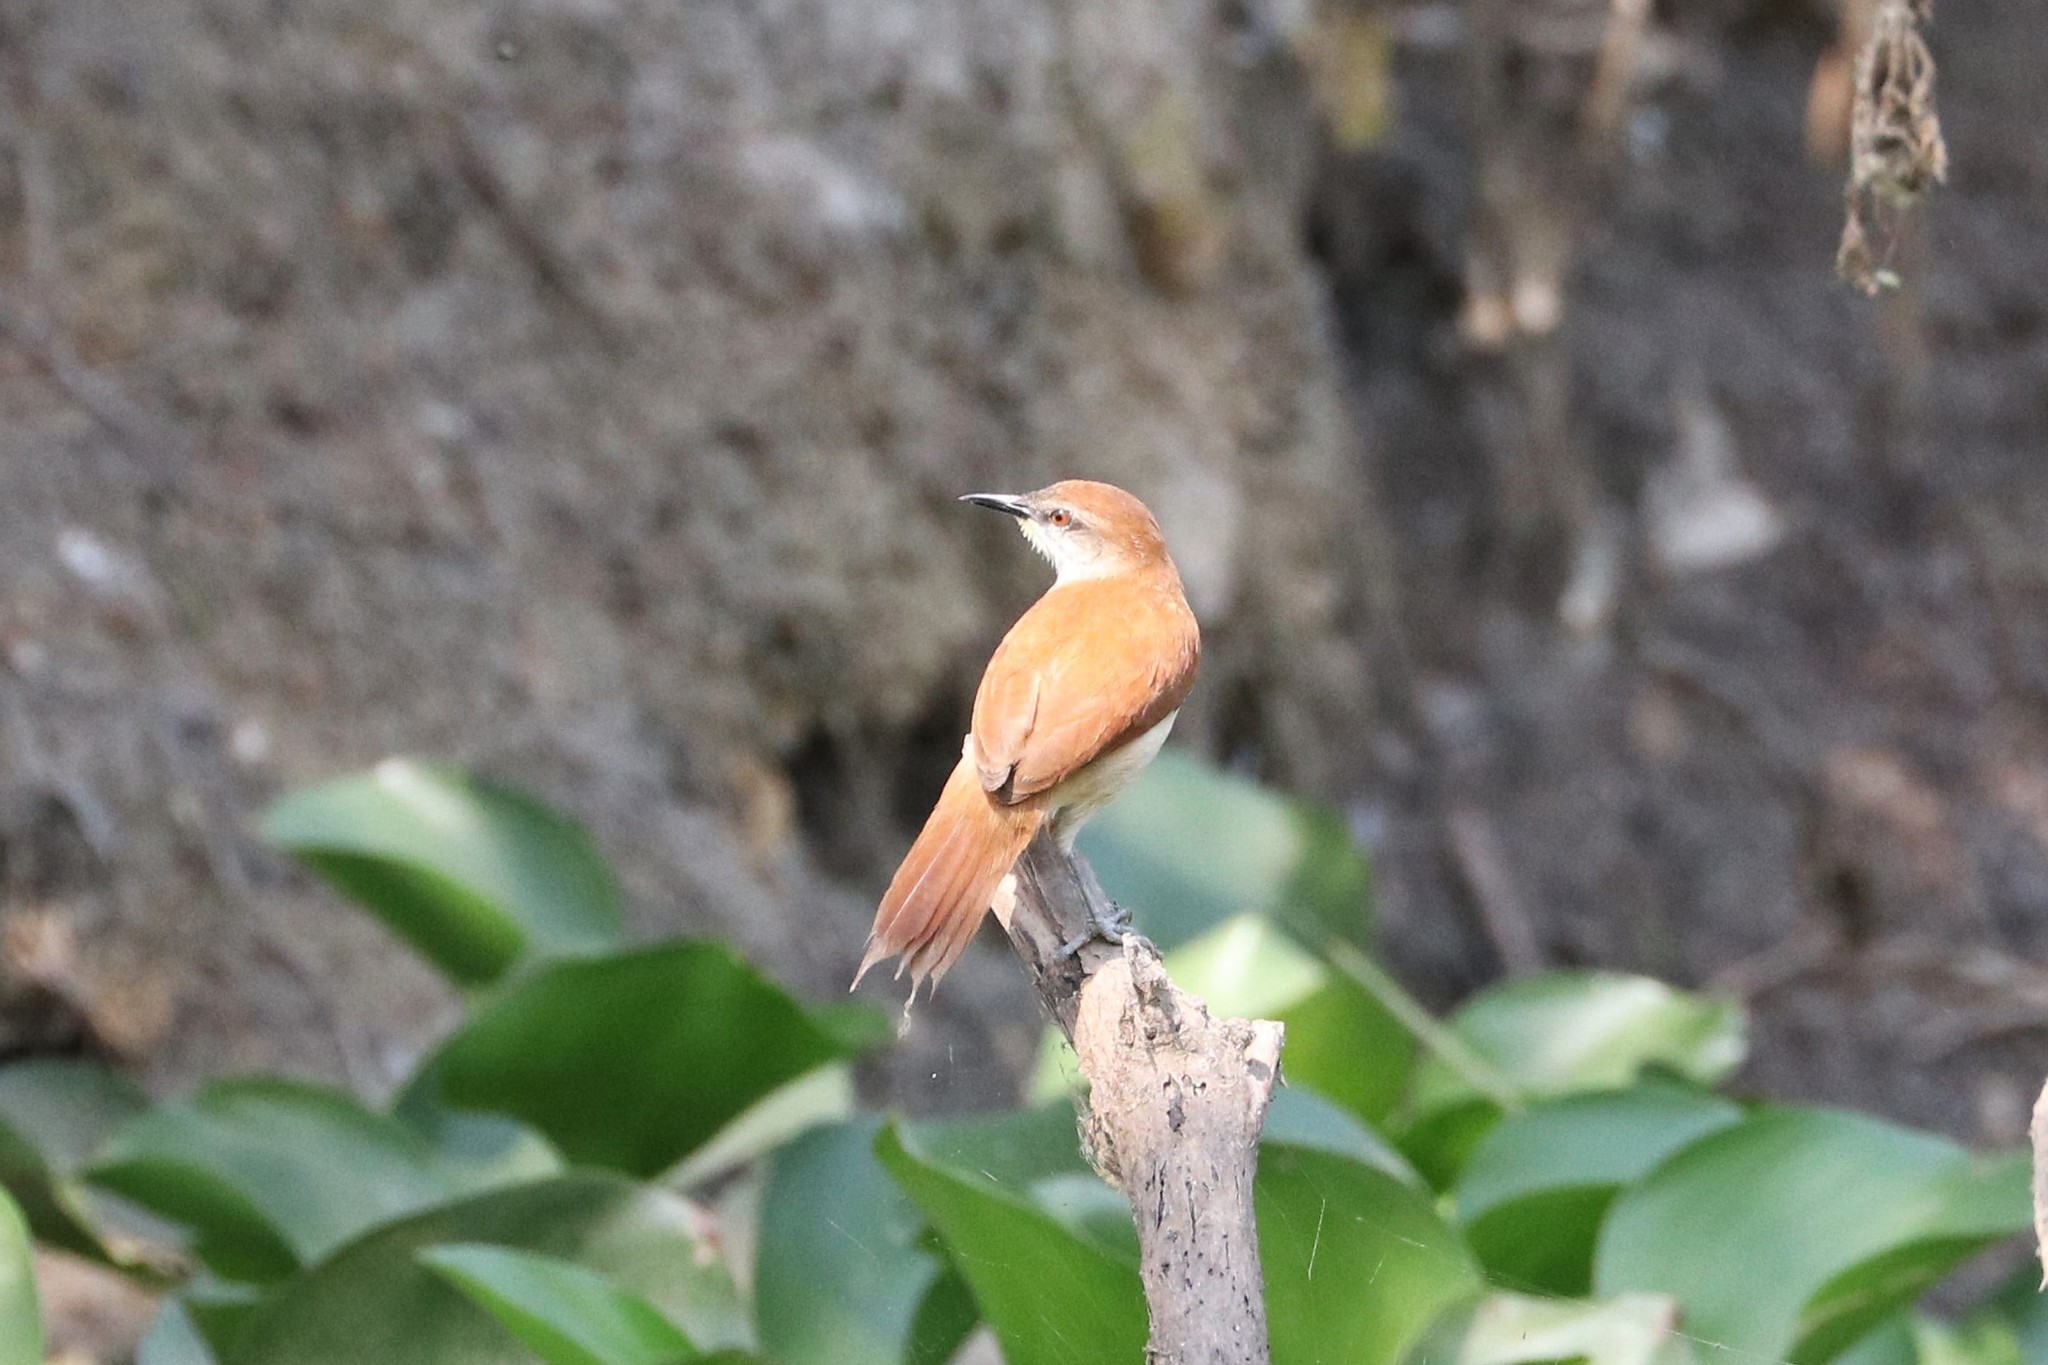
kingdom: Animalia
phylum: Chordata
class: Aves
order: Passeriformes
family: Furnariidae
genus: Certhiaxis
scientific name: Certhiaxis cinnamomeus
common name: Yellow-chinned spinetail
